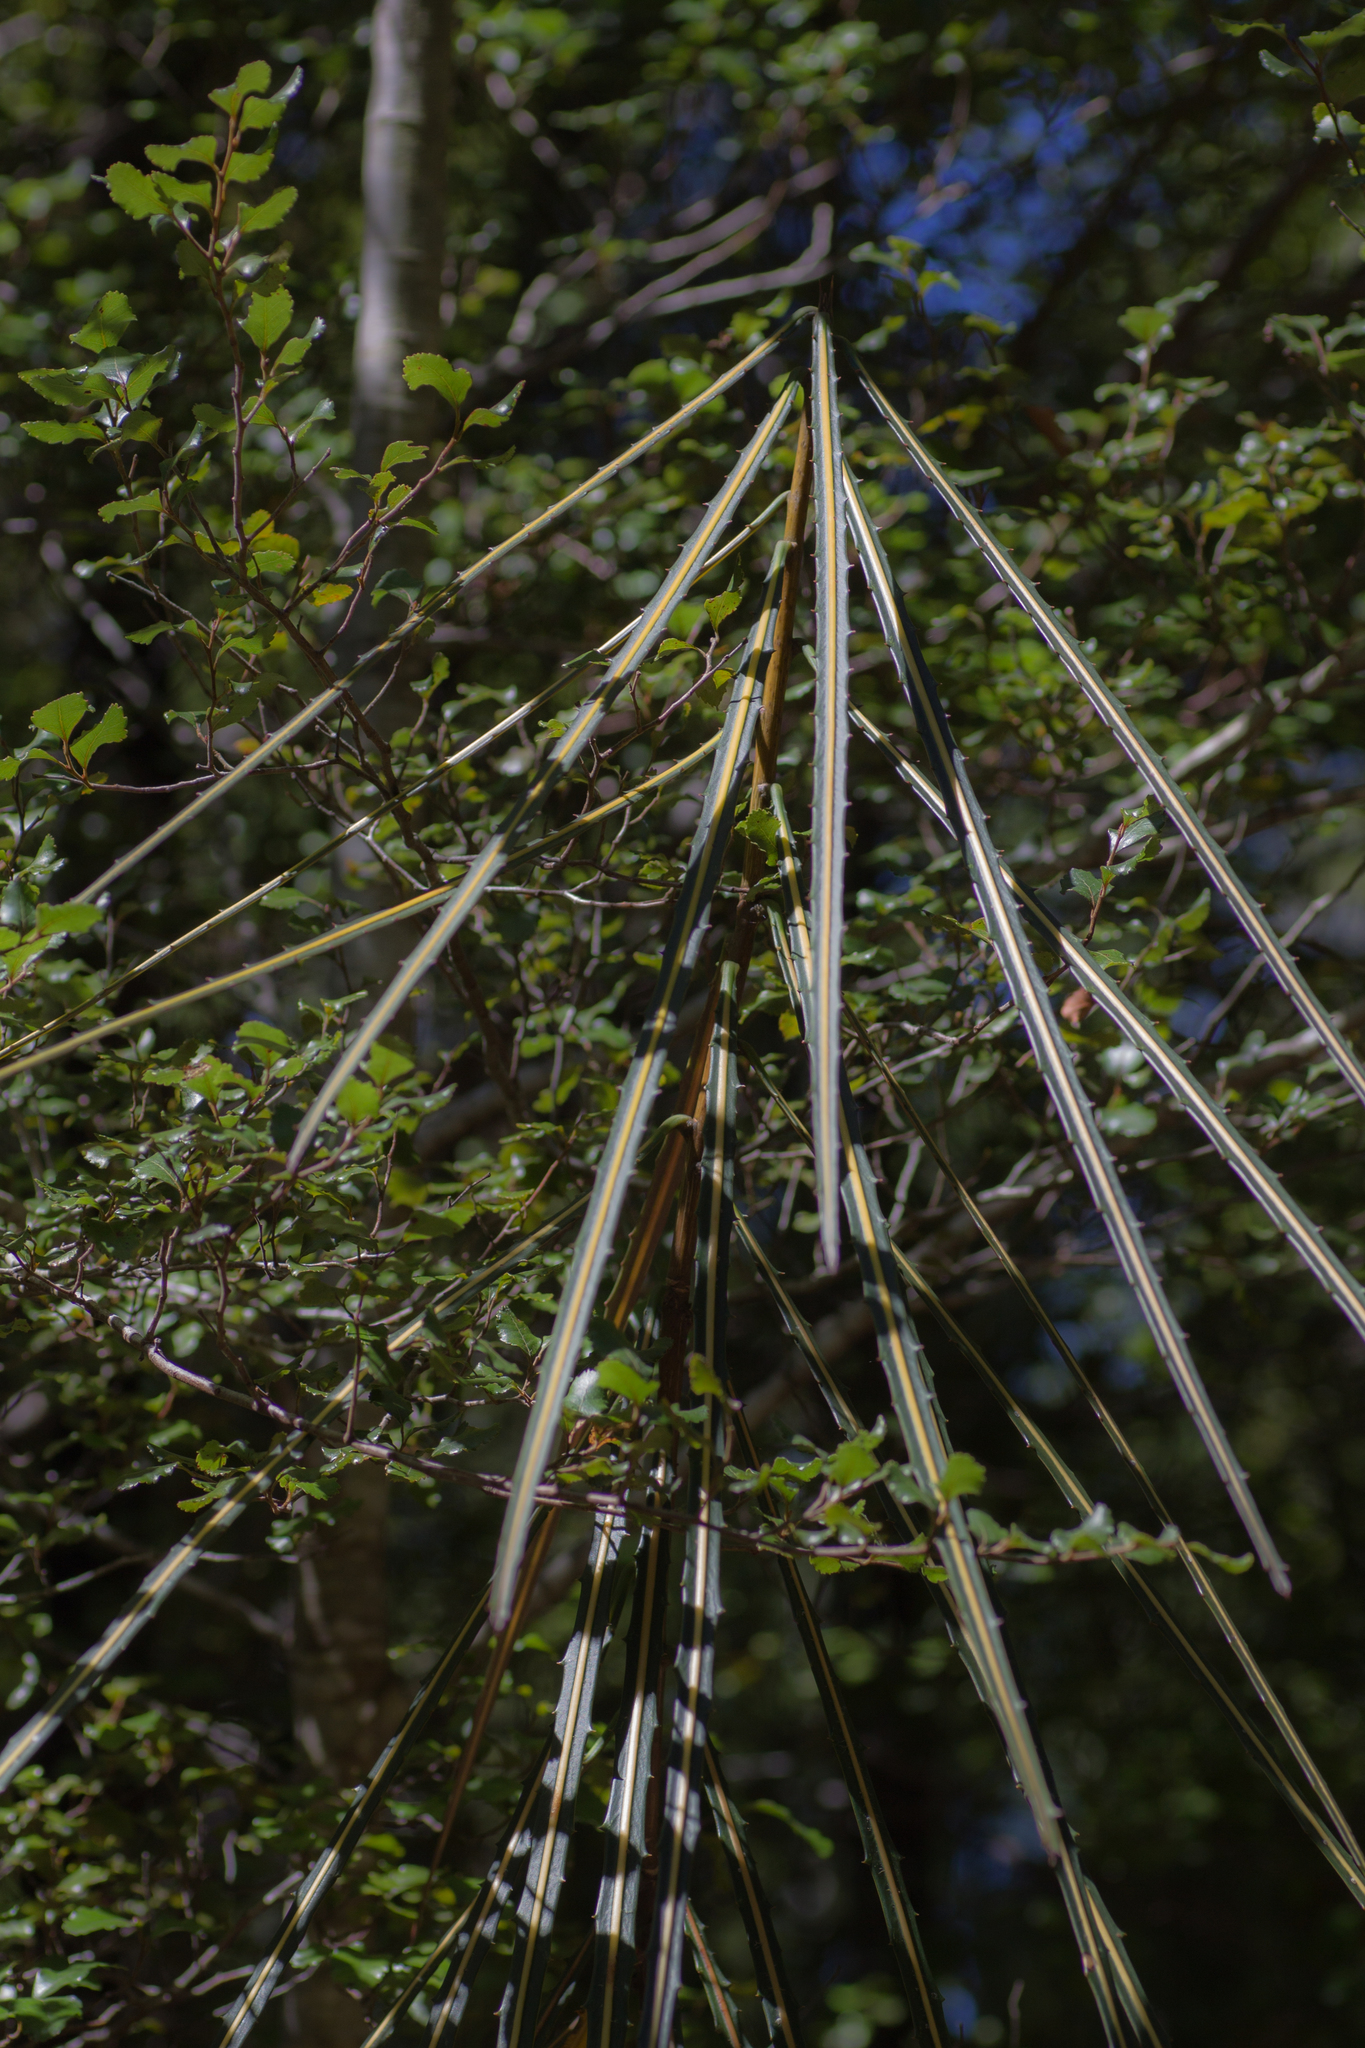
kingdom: Plantae
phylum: Tracheophyta
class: Magnoliopsida
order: Apiales
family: Araliaceae
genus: Pseudopanax
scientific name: Pseudopanax crassifolius
